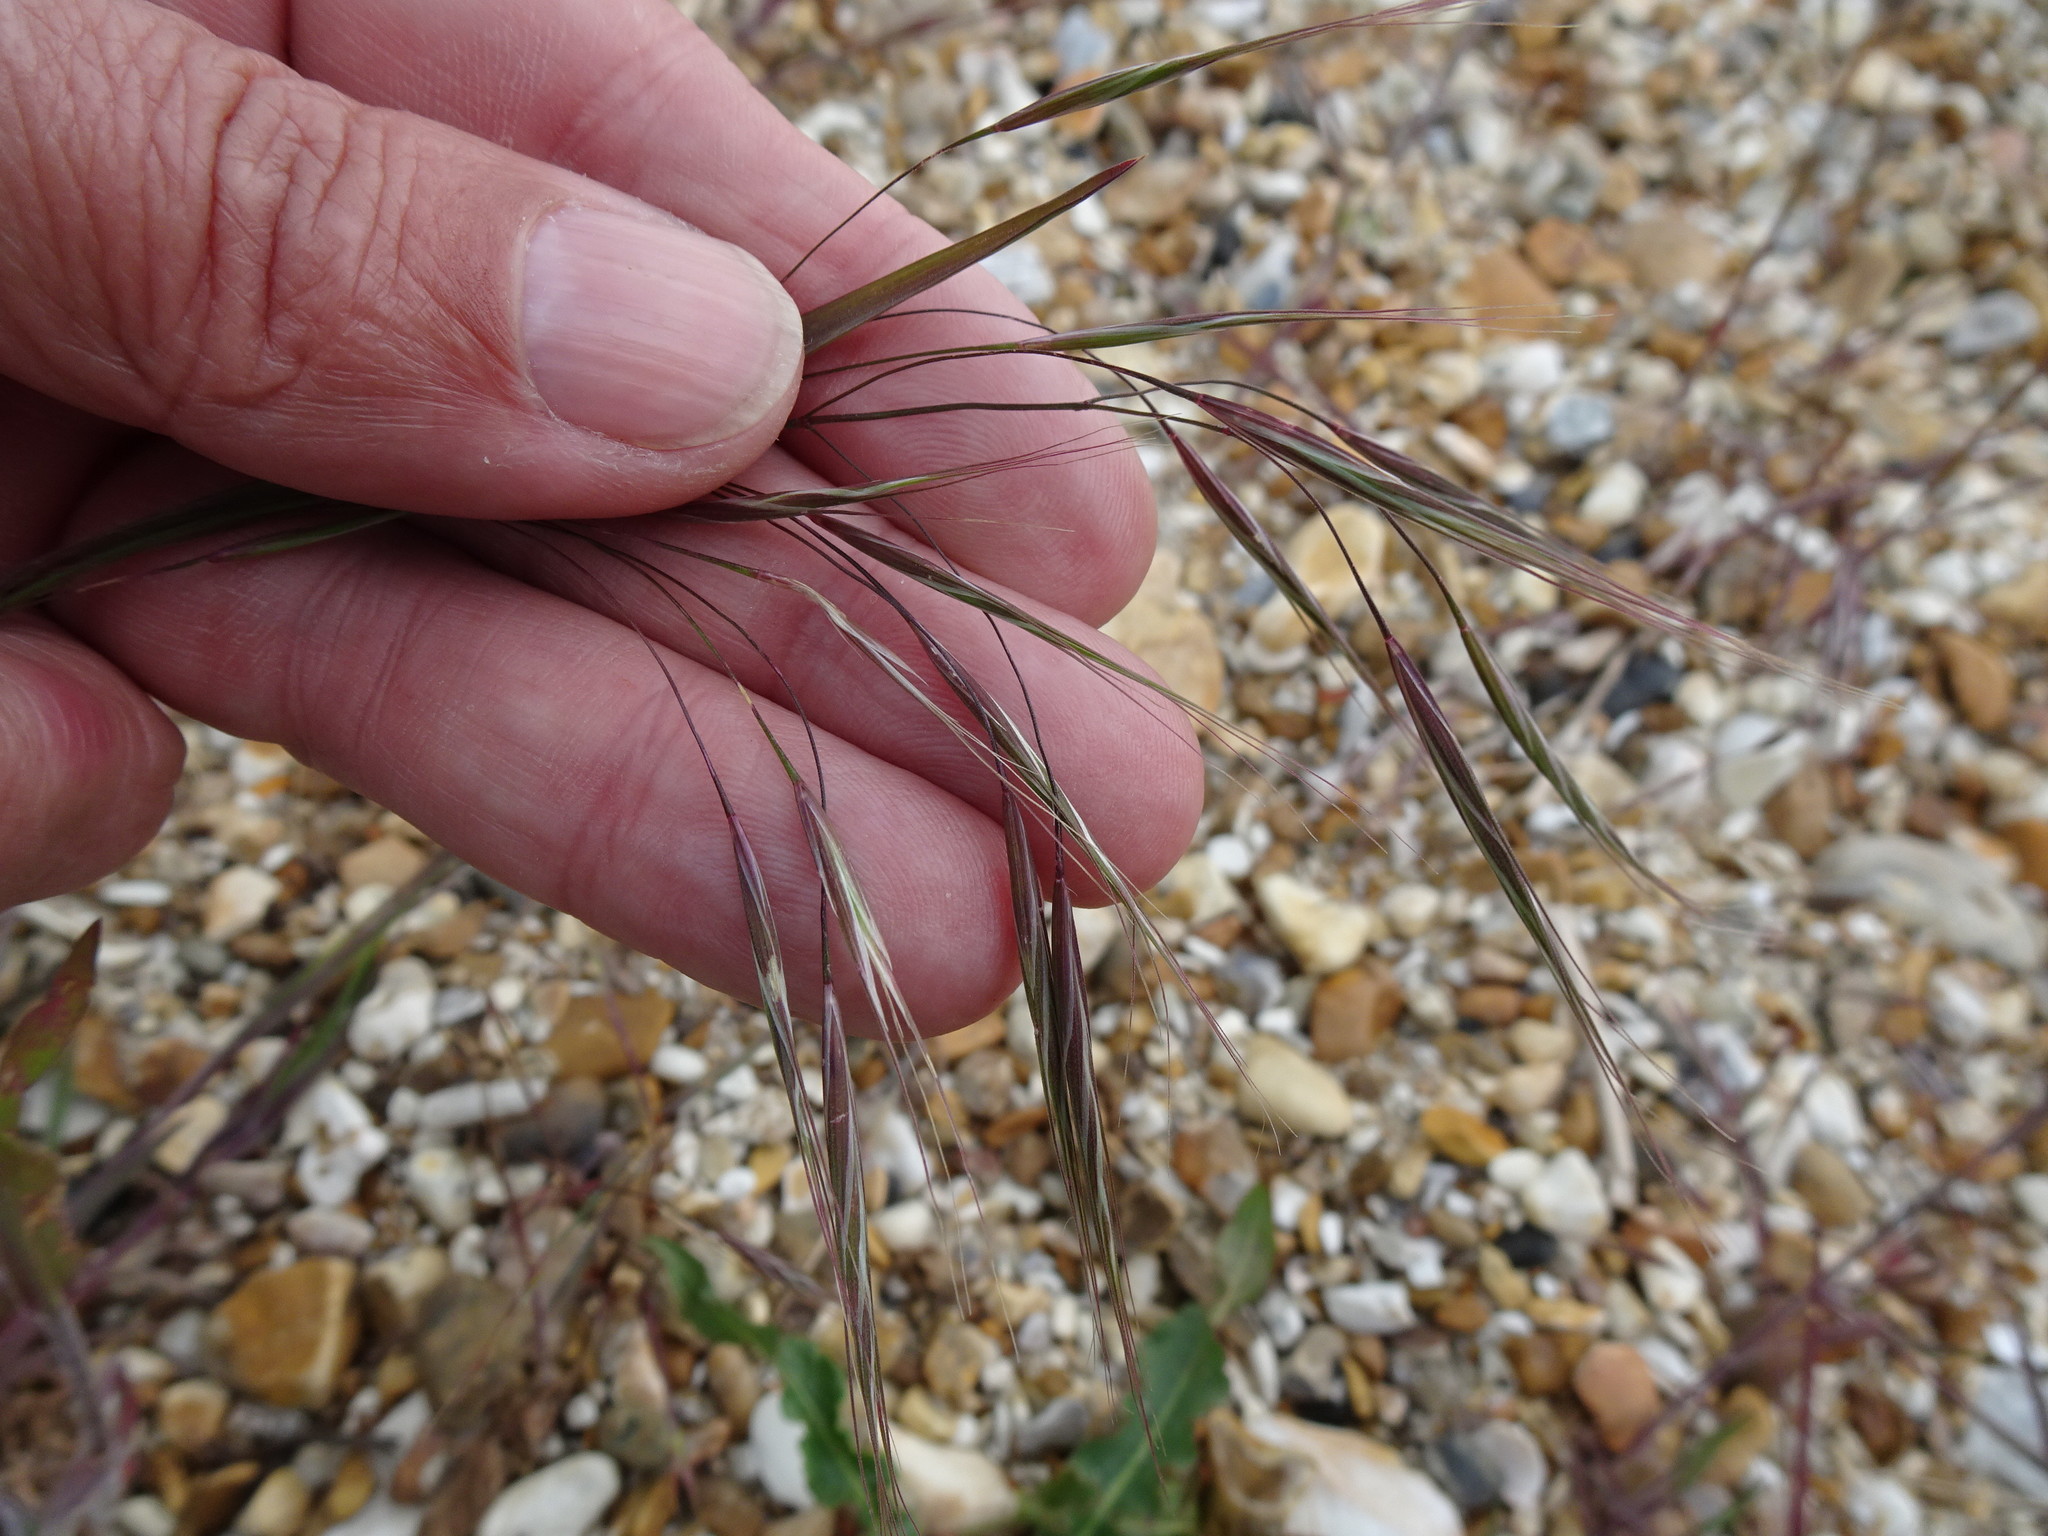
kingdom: Plantae
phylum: Tracheophyta
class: Liliopsida
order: Poales
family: Poaceae
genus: Bromus
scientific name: Bromus sterilis
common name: Poverty brome
